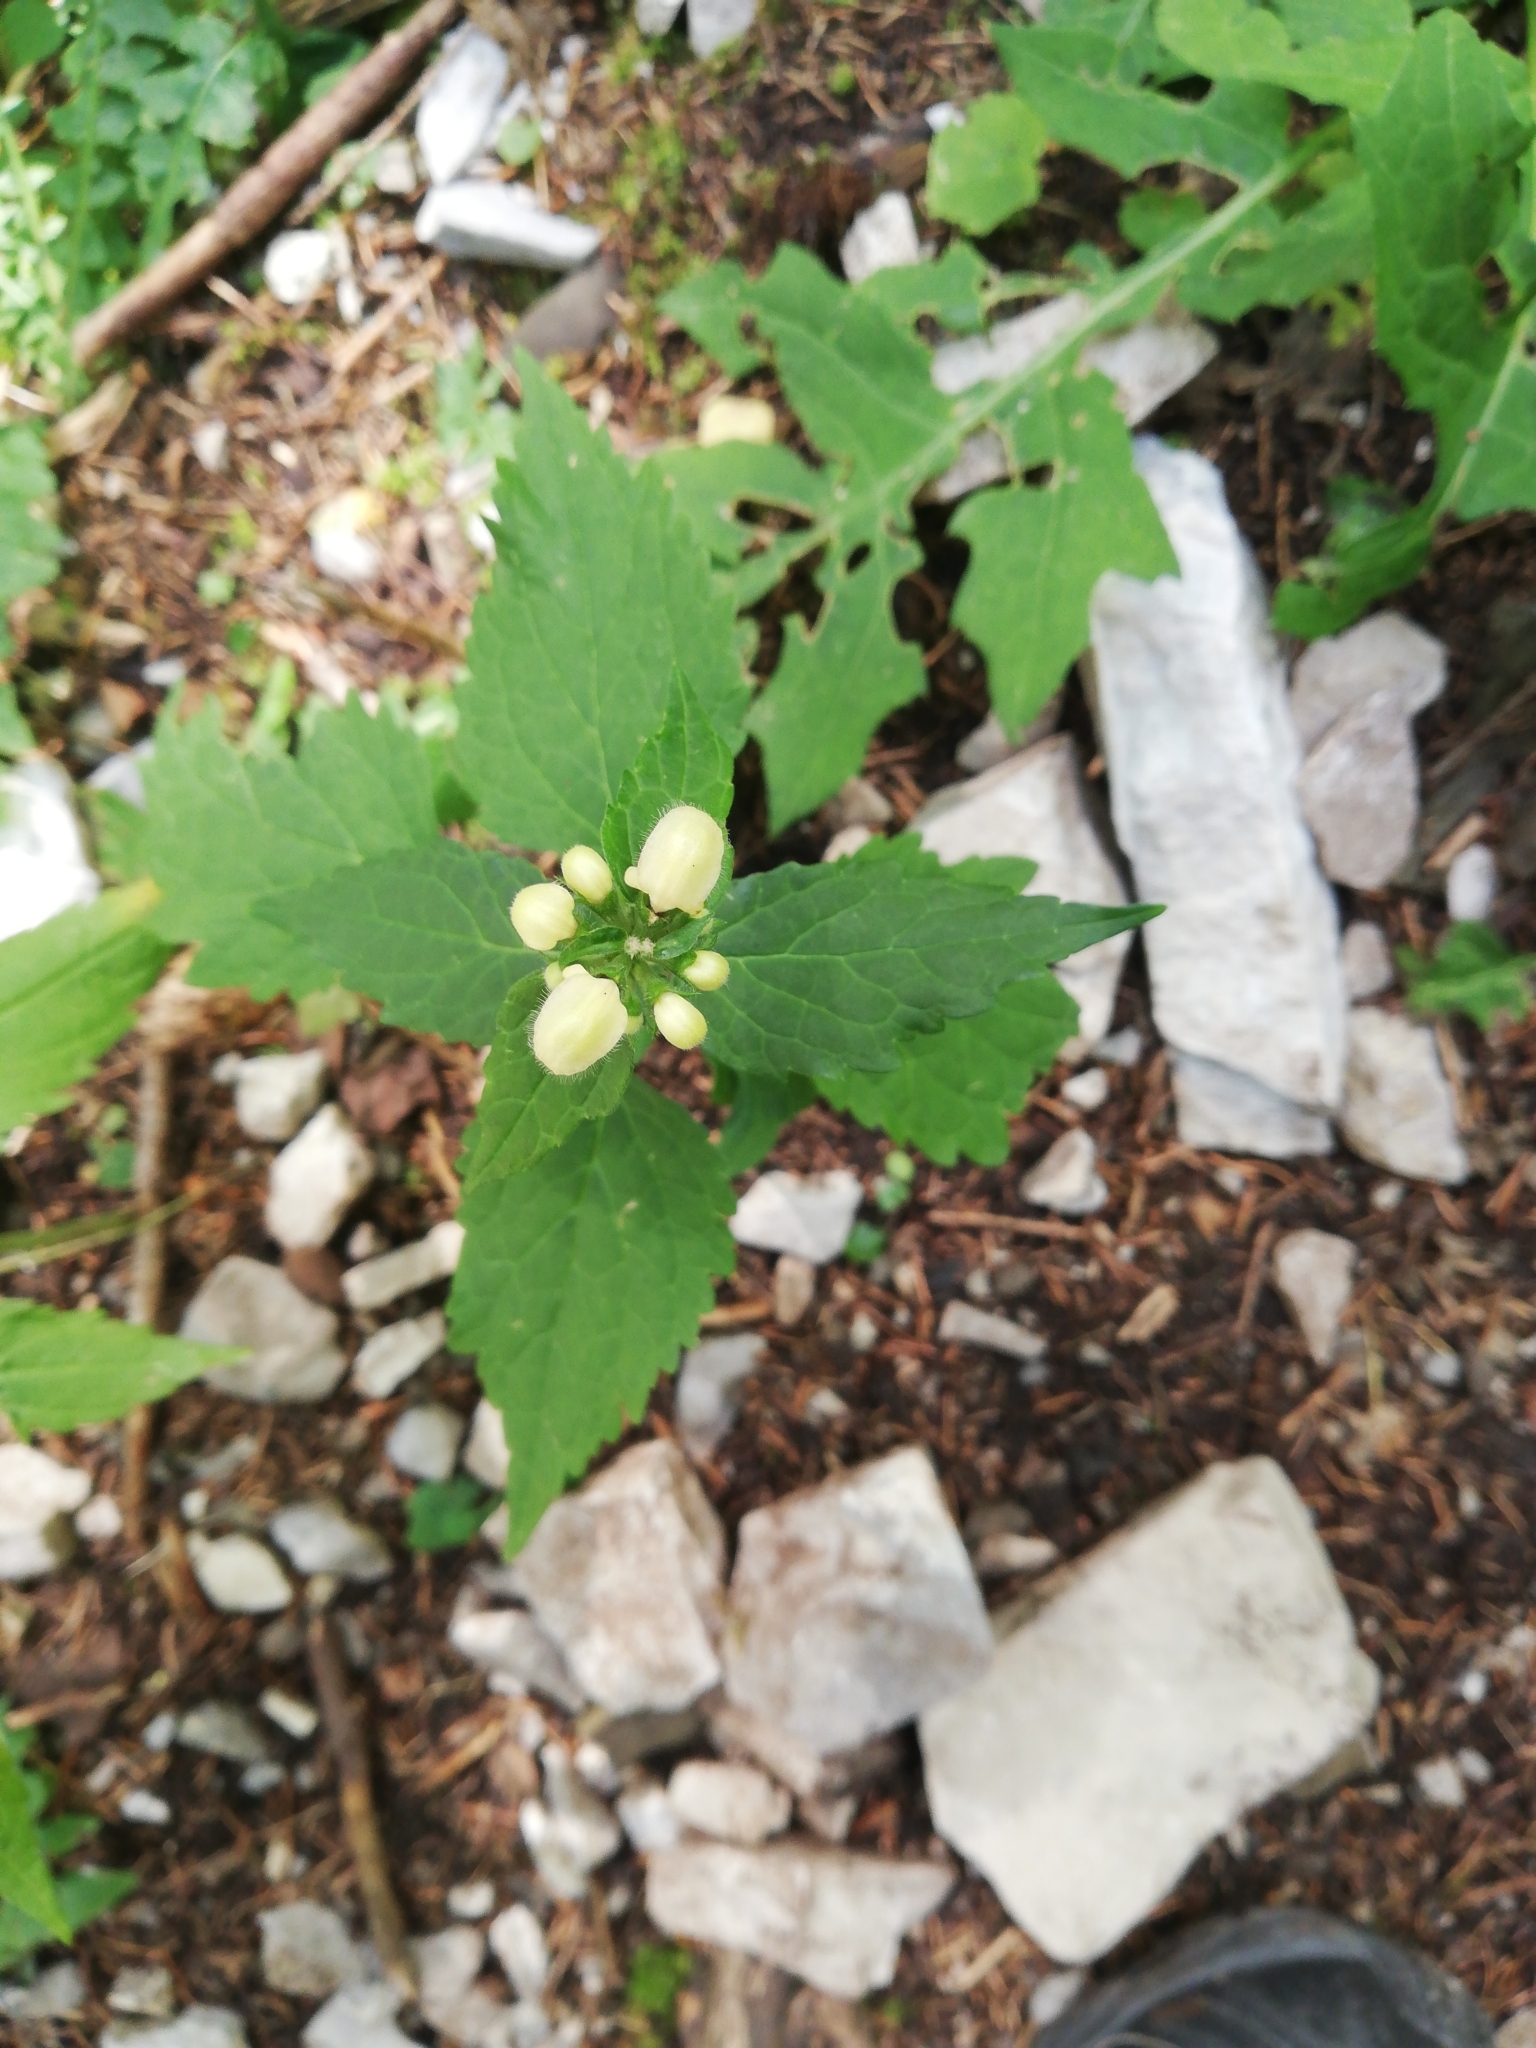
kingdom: Plantae
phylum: Tracheophyta
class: Magnoliopsida
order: Lamiales
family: Lamiaceae
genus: Lamium
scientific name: Lamium album
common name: White dead-nettle
